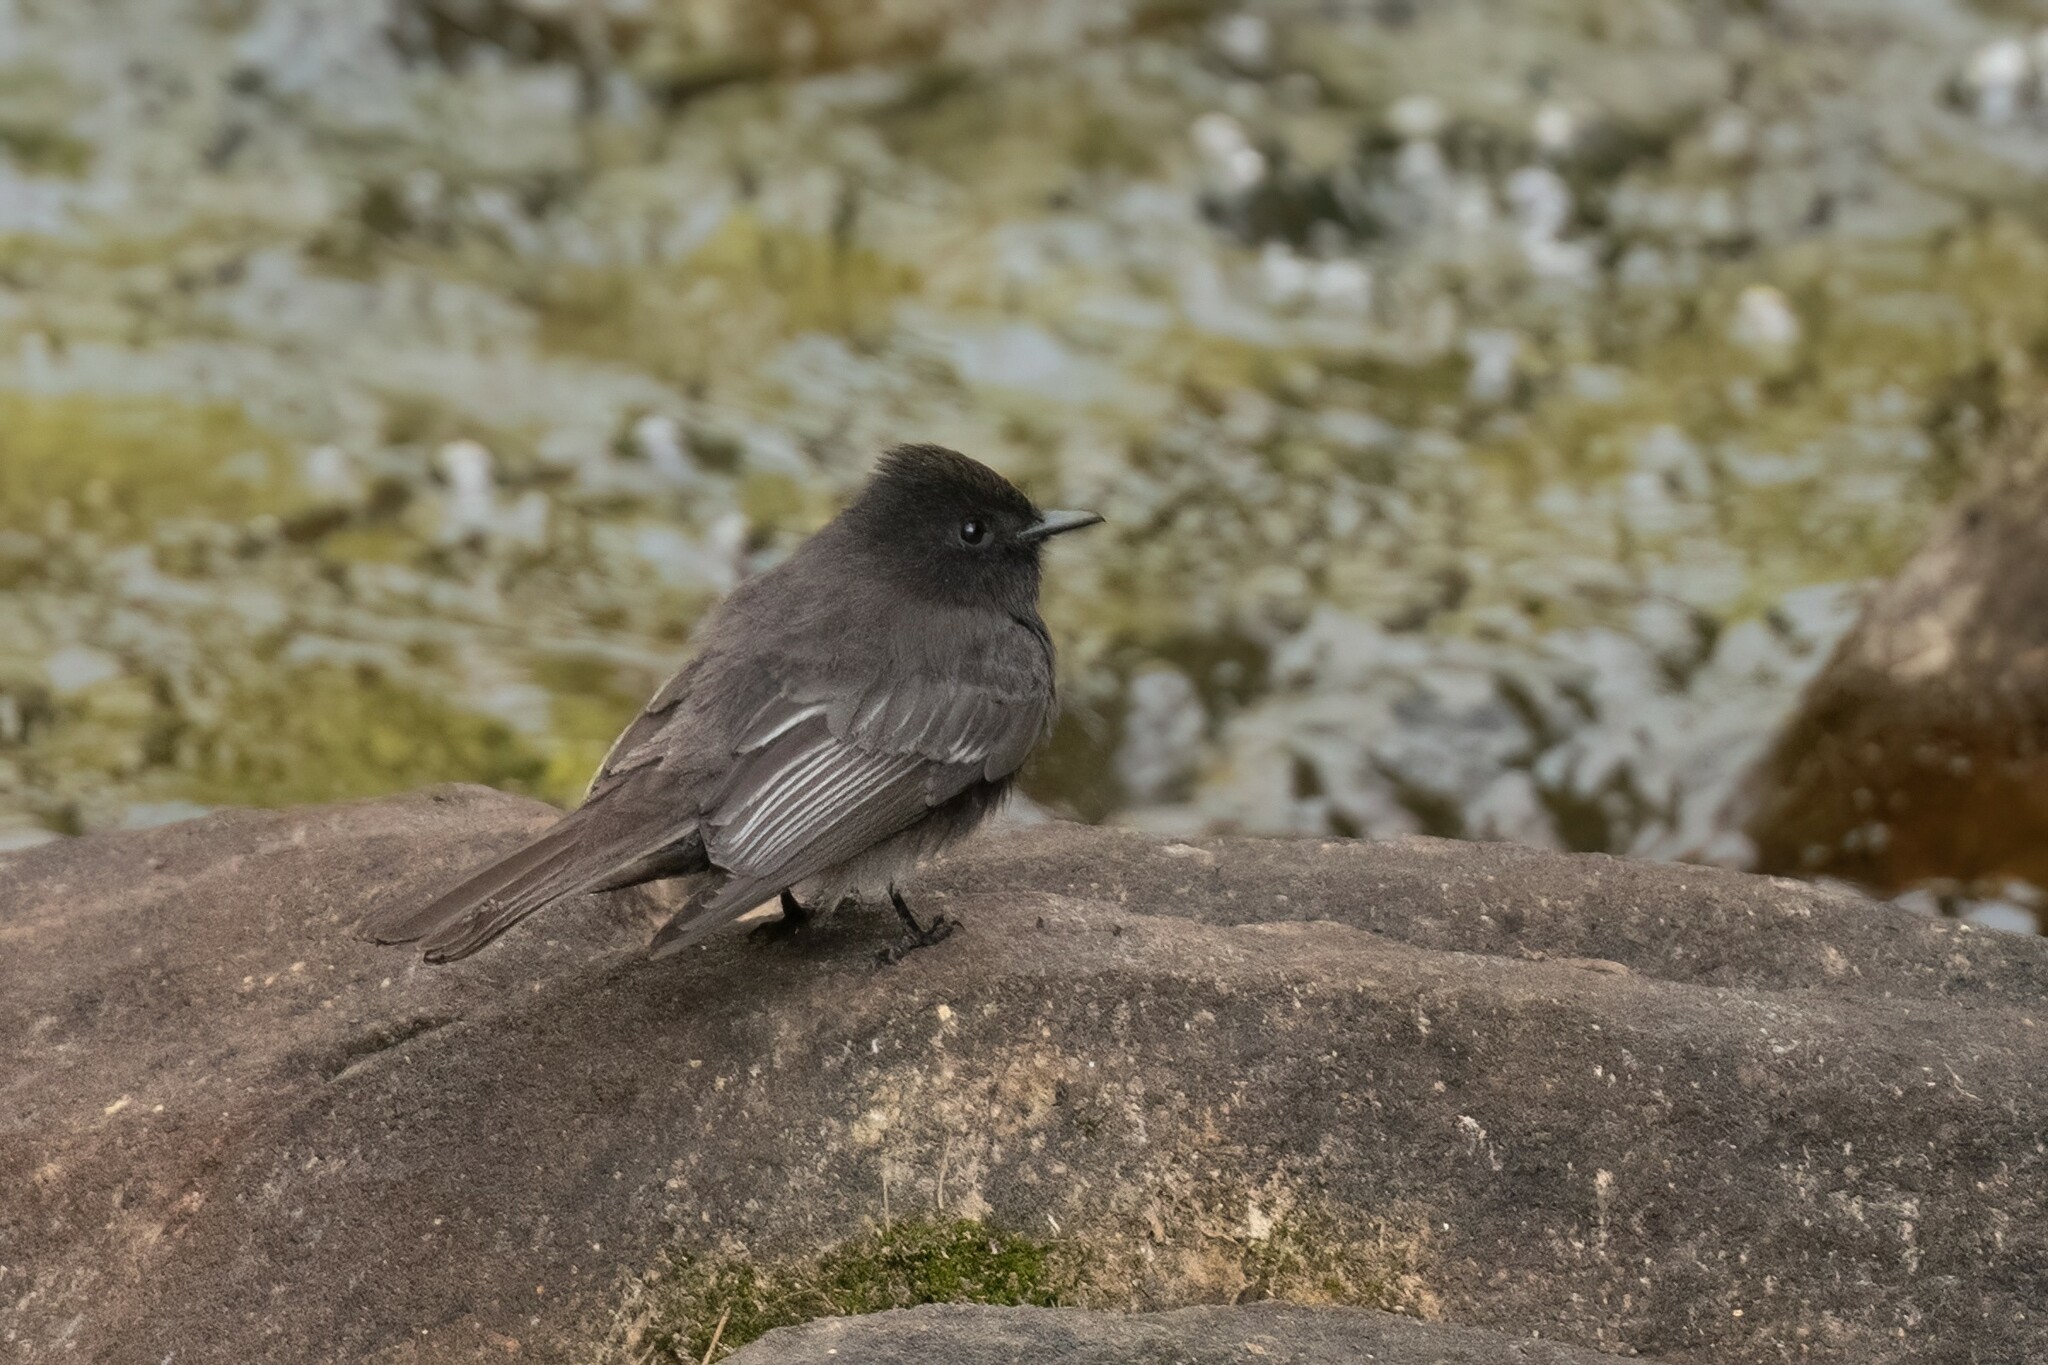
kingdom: Animalia
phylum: Chordata
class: Aves
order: Passeriformes
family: Tyrannidae
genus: Sayornis
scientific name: Sayornis nigricans
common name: Black phoebe
